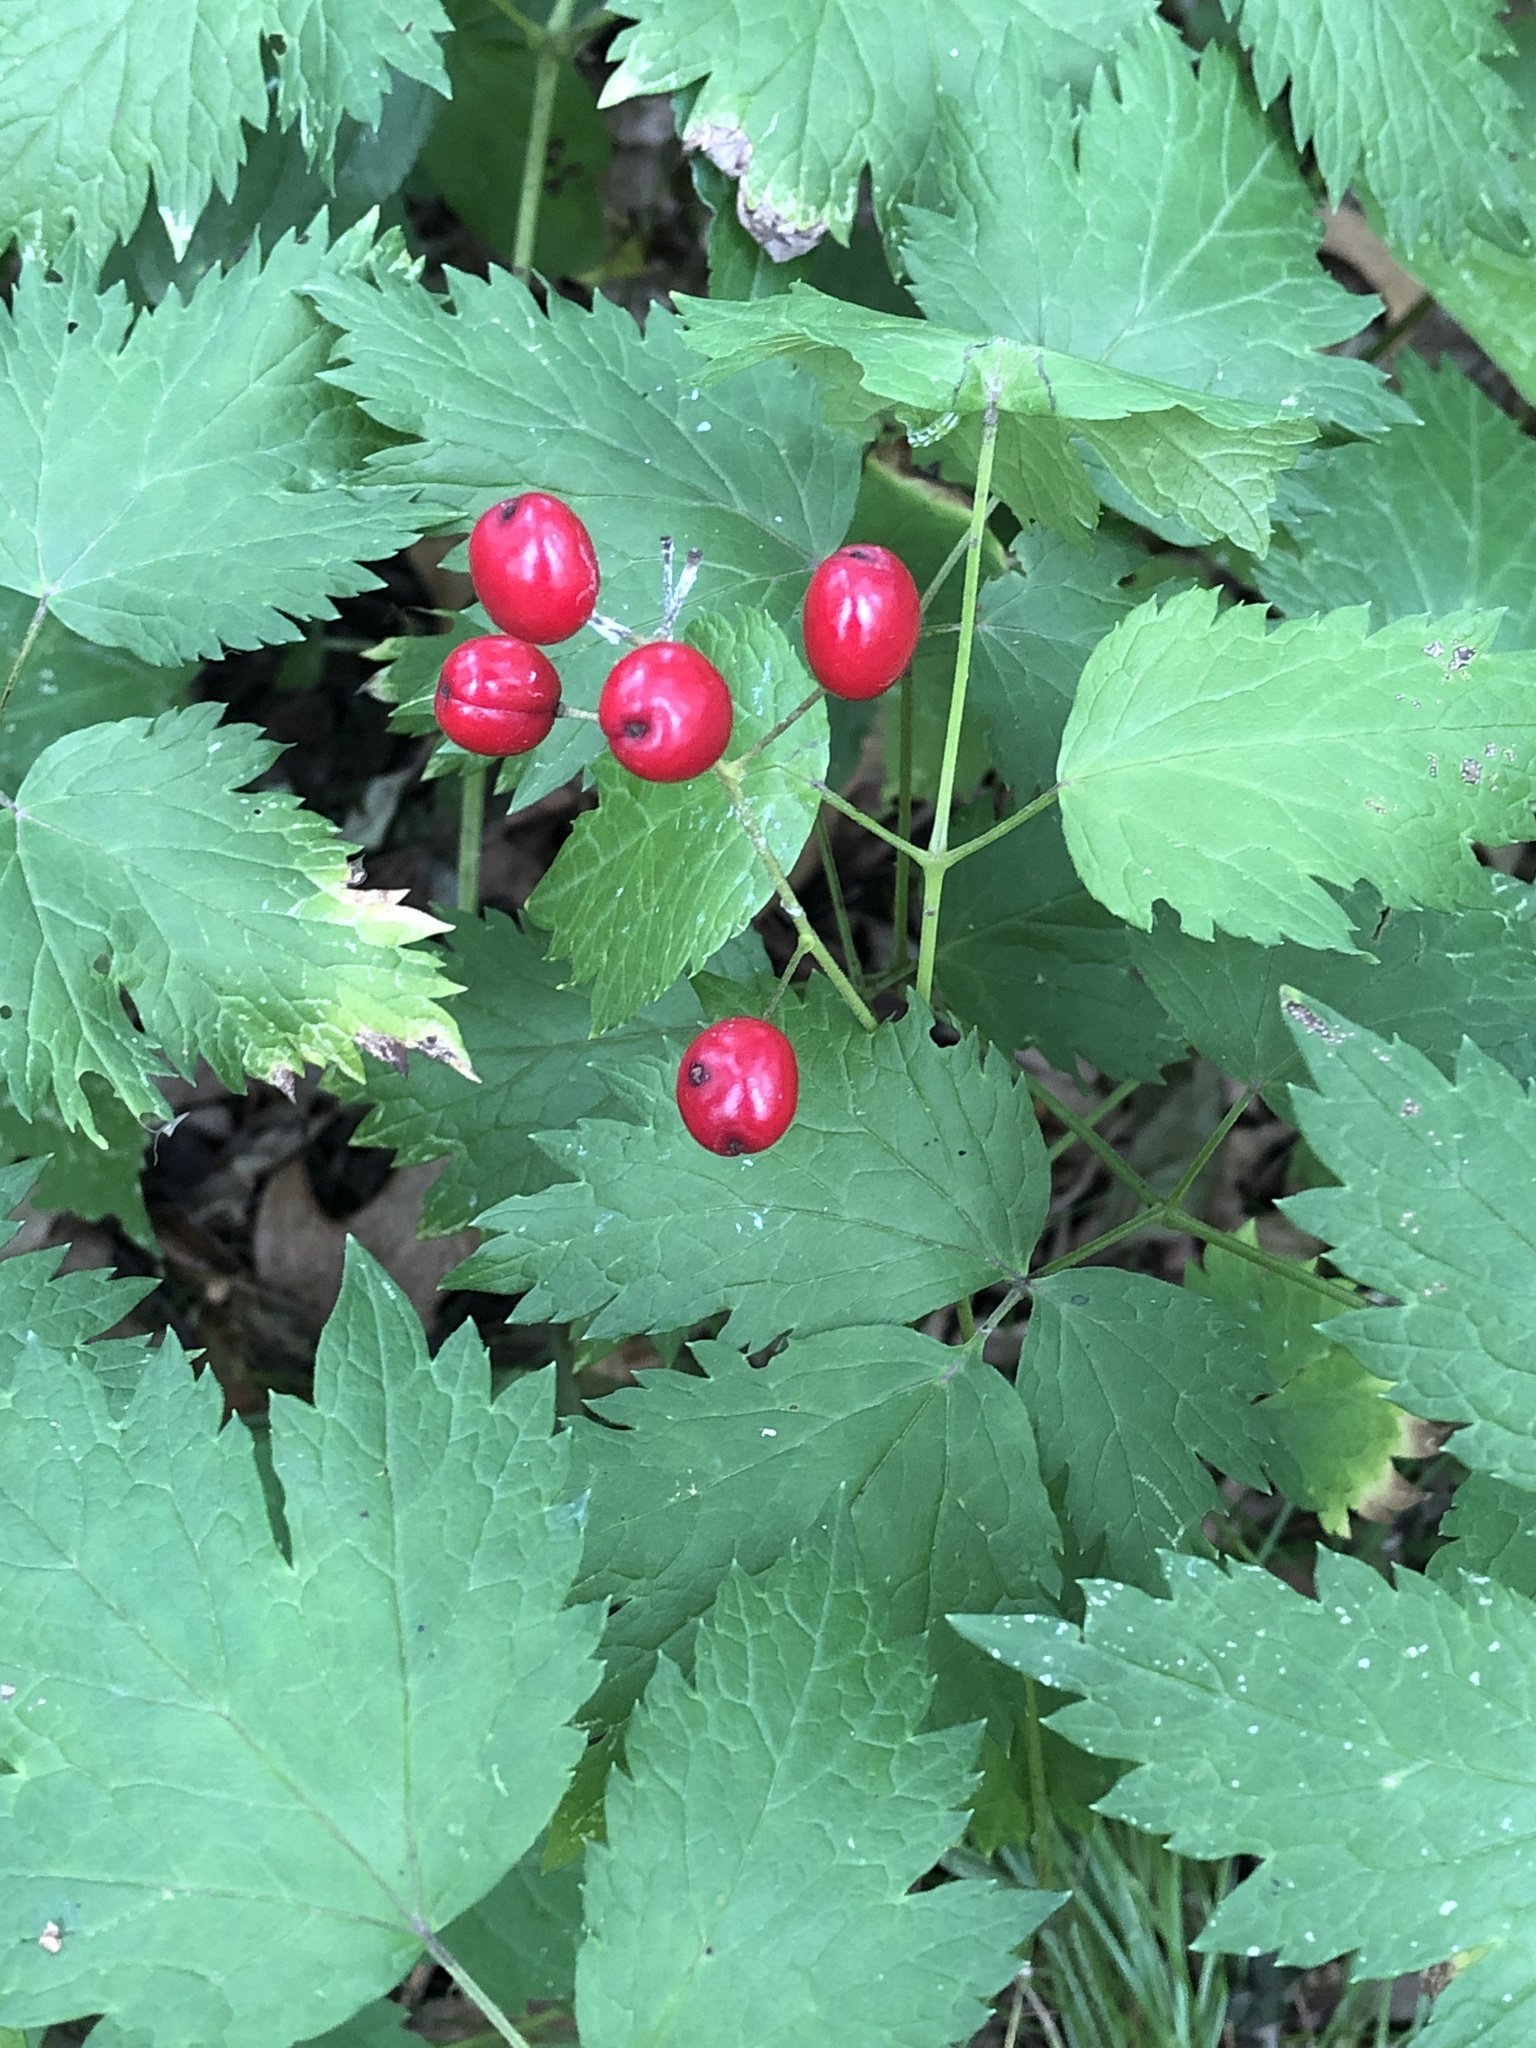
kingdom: Plantae
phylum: Tracheophyta
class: Magnoliopsida
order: Ranunculales
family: Ranunculaceae
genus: Actaea
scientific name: Actaea rubra
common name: Red baneberry
